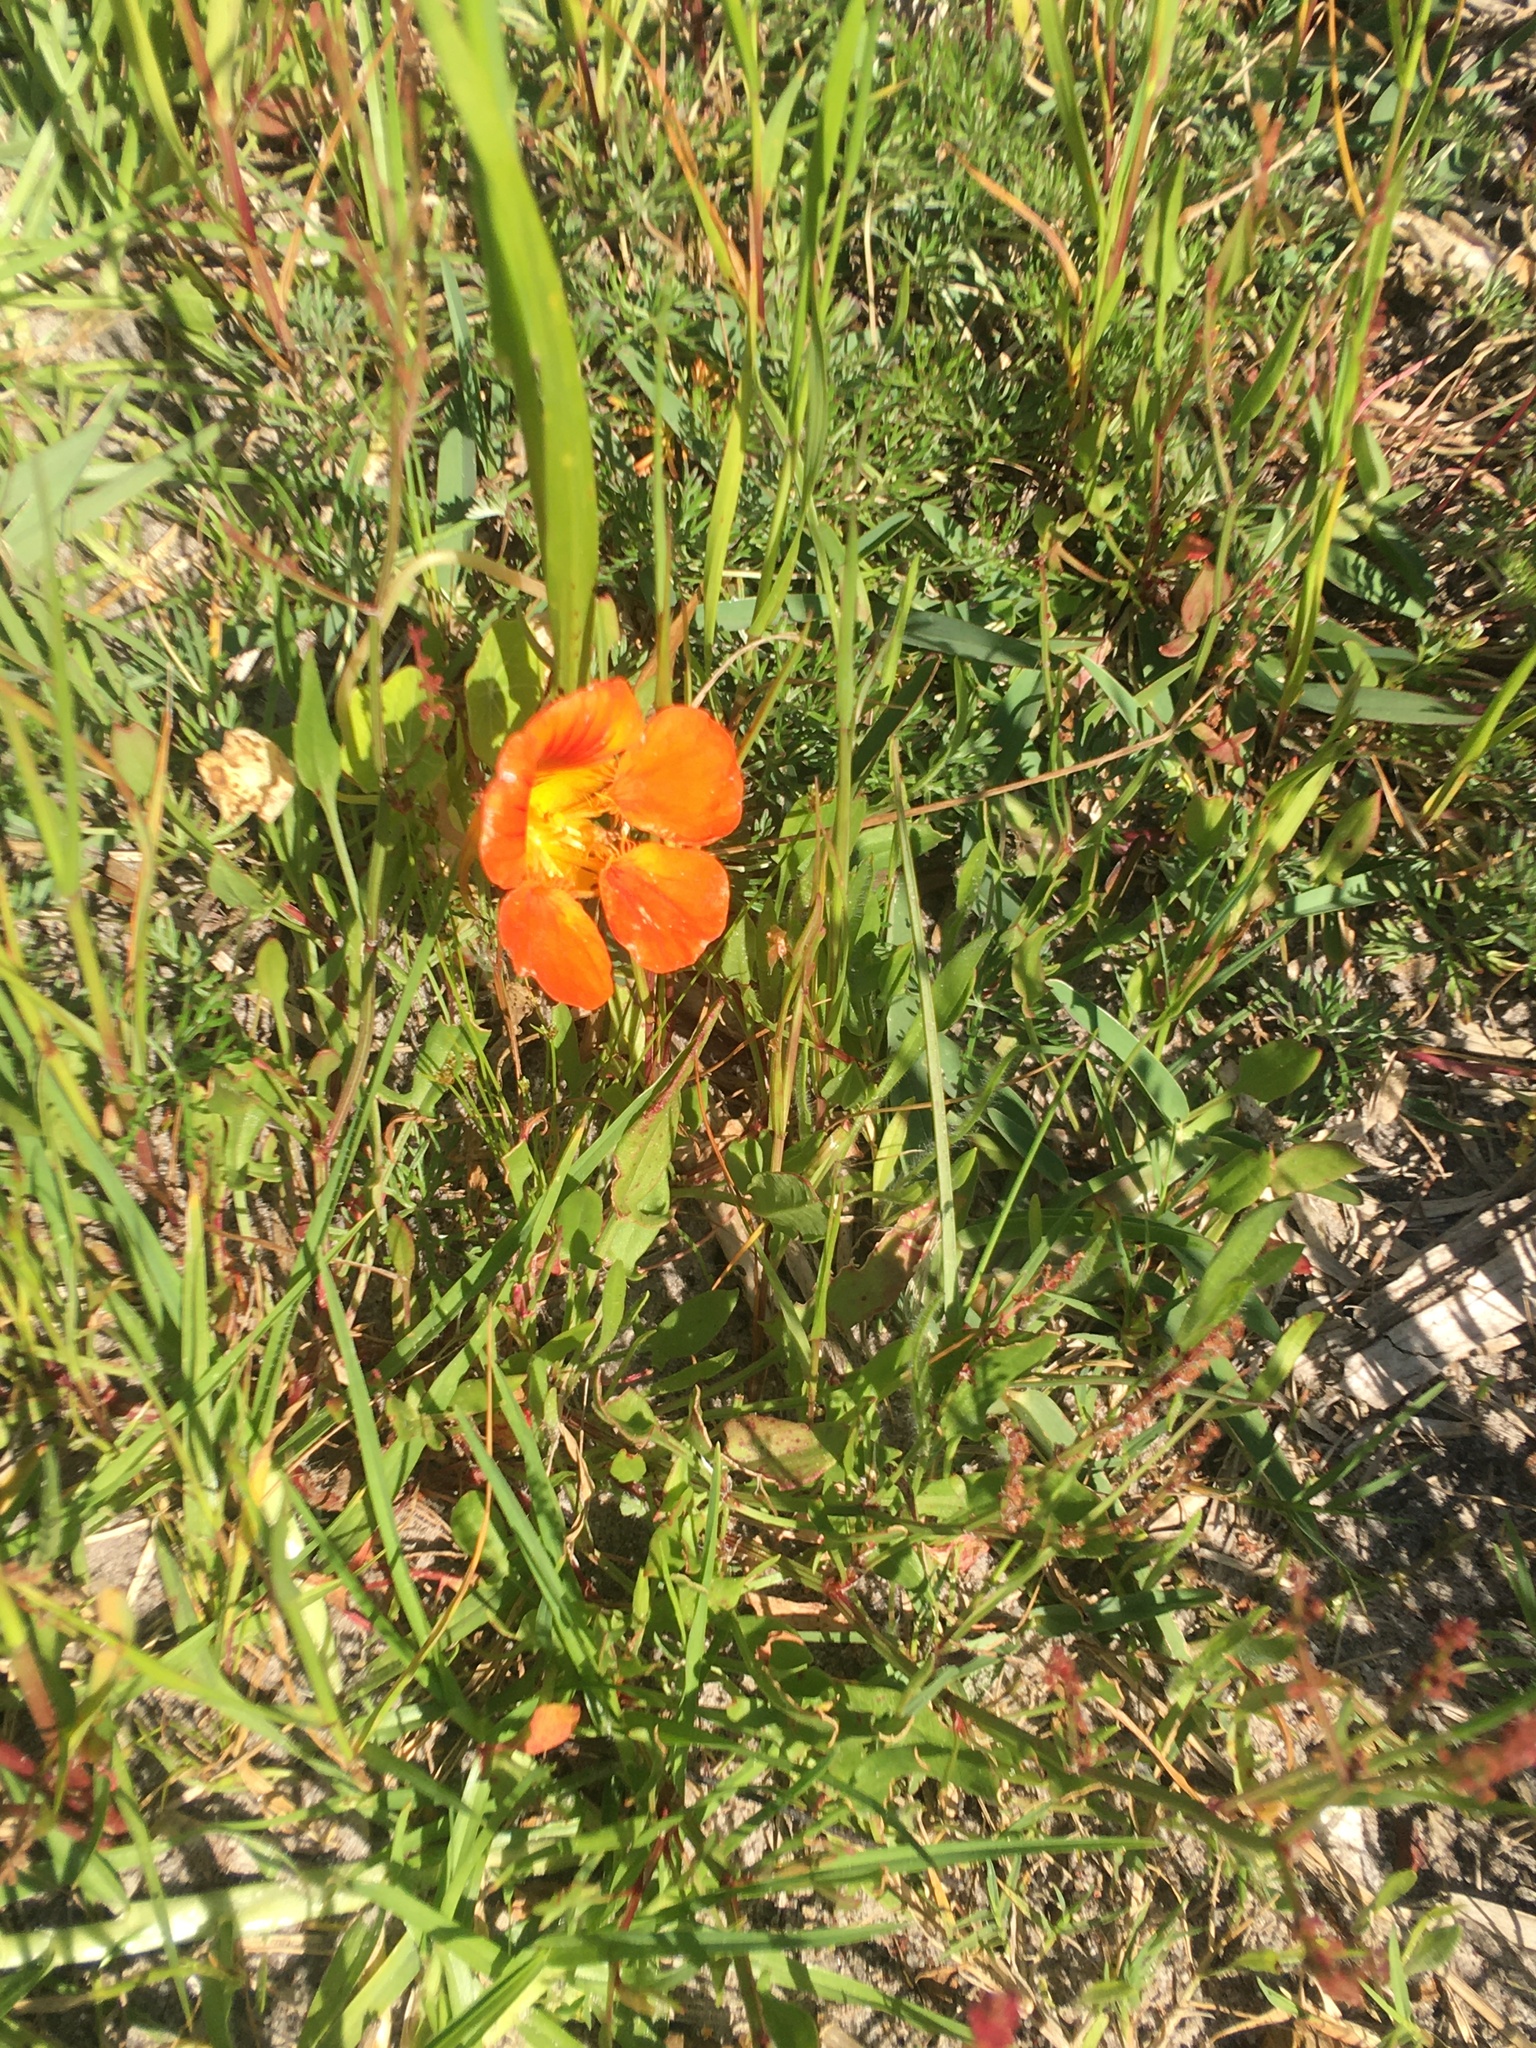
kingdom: Plantae
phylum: Tracheophyta
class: Magnoliopsida
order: Brassicales
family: Tropaeolaceae
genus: Tropaeolum
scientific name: Tropaeolum majus
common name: Nasturtium
